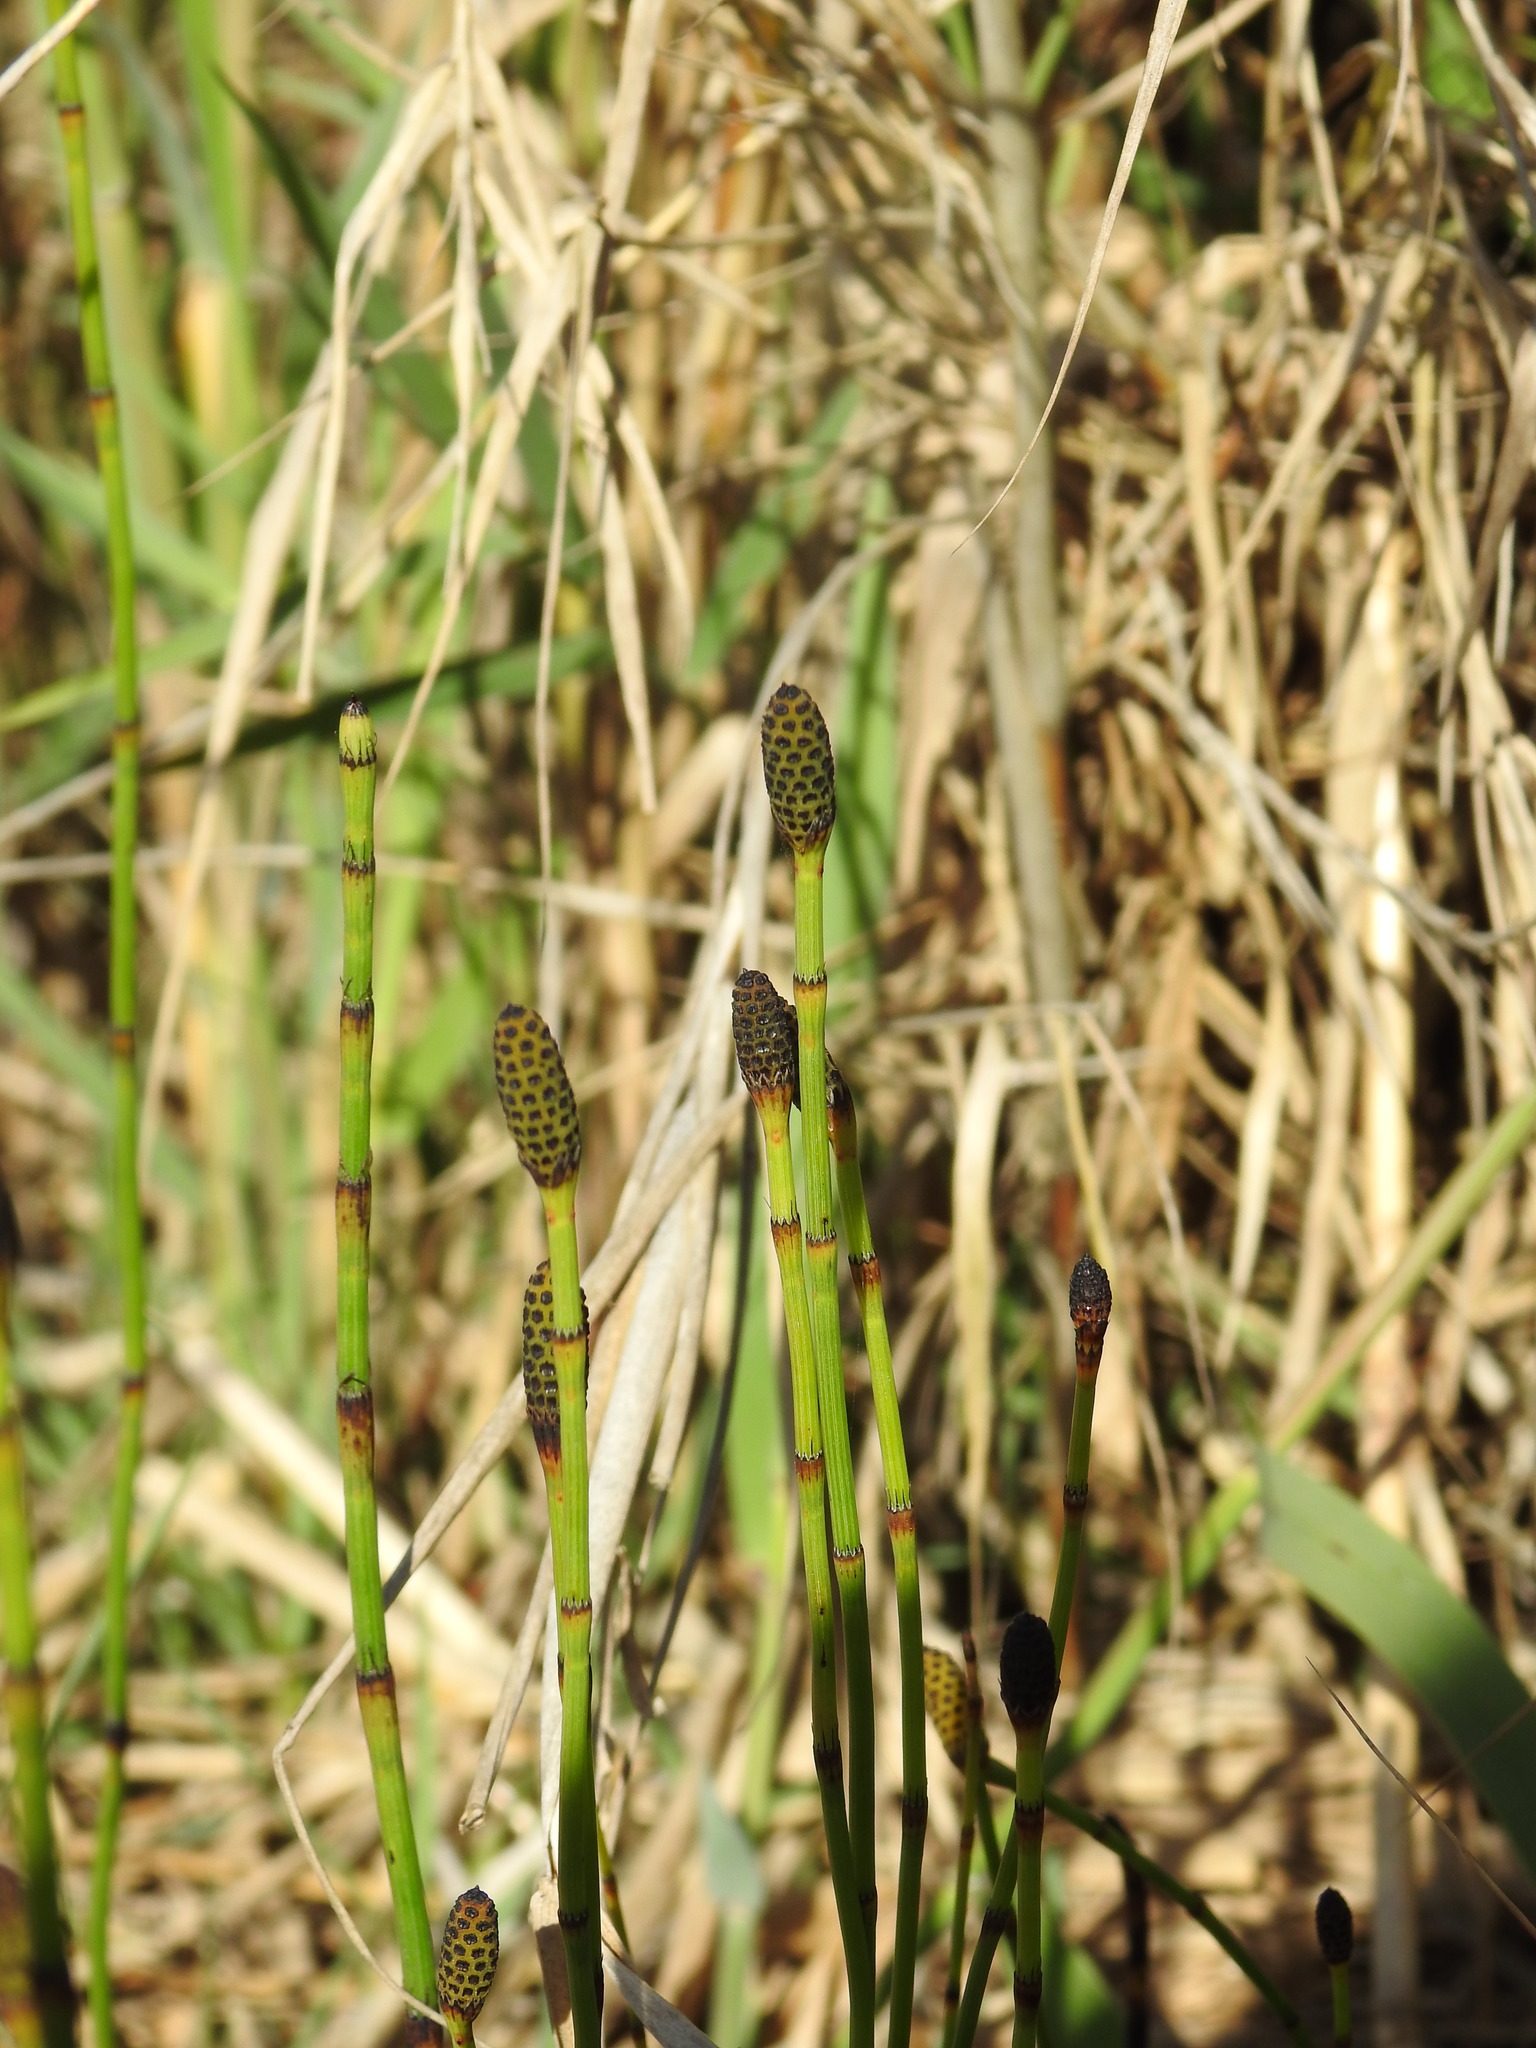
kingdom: Plantae
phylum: Tracheophyta
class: Polypodiopsida
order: Equisetales
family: Equisetaceae
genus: Equisetum
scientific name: Equisetum ramosissimum
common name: Branched horsetail
